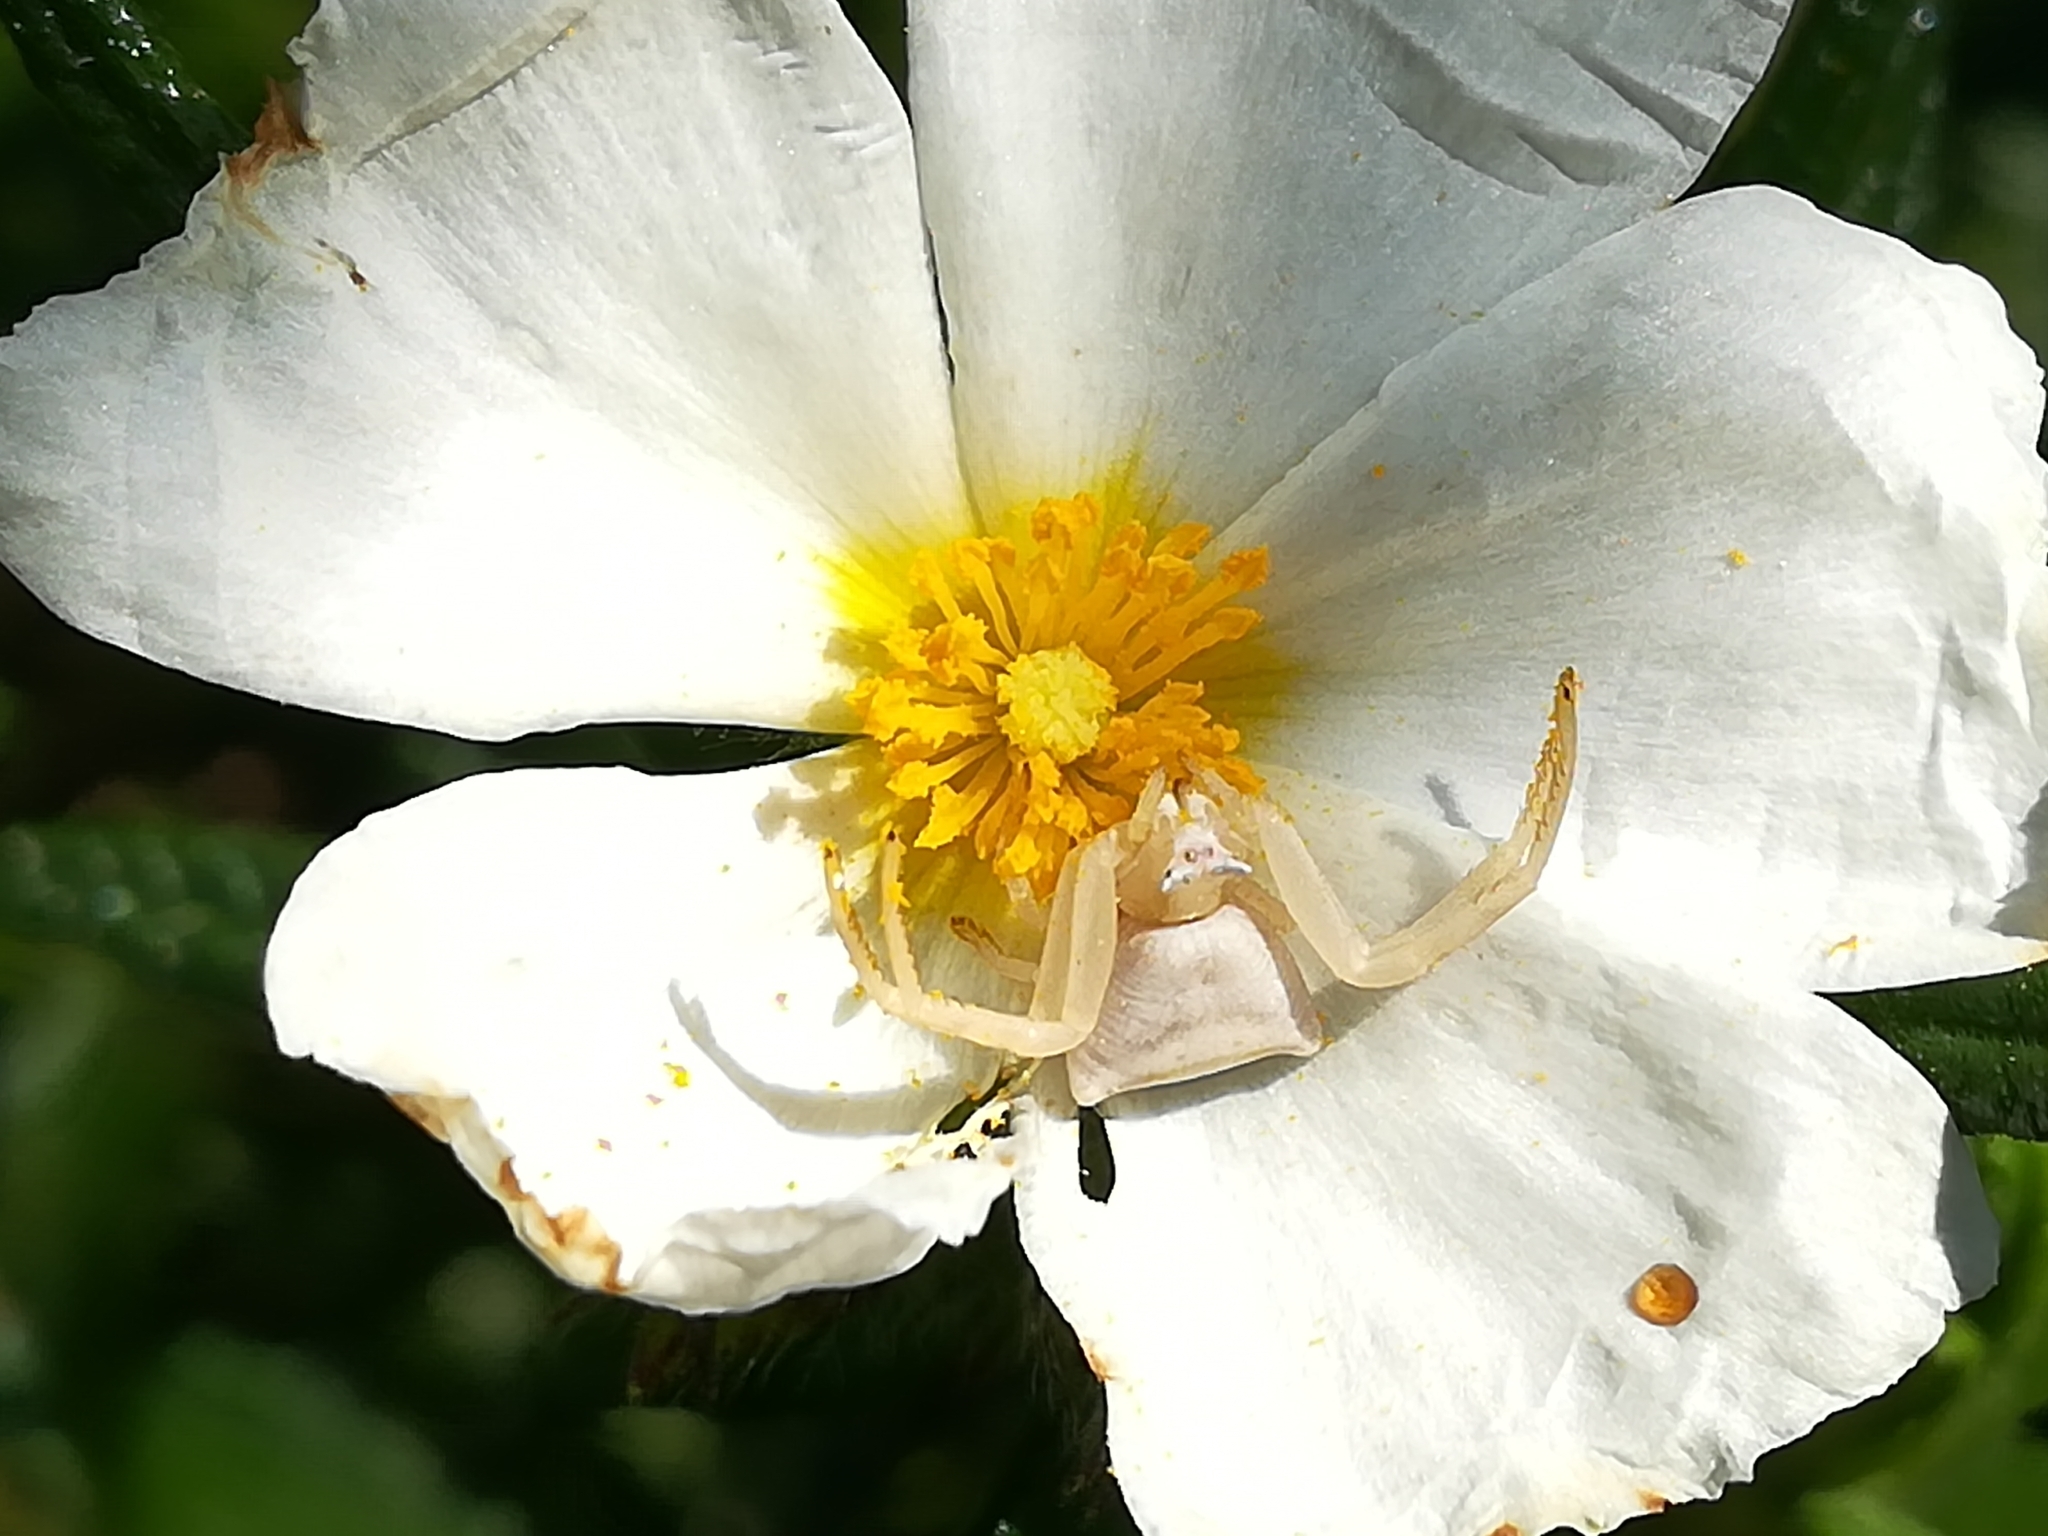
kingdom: Animalia
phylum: Arthropoda
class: Arachnida
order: Araneae
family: Thomisidae
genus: Thomisus
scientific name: Thomisus onustus
